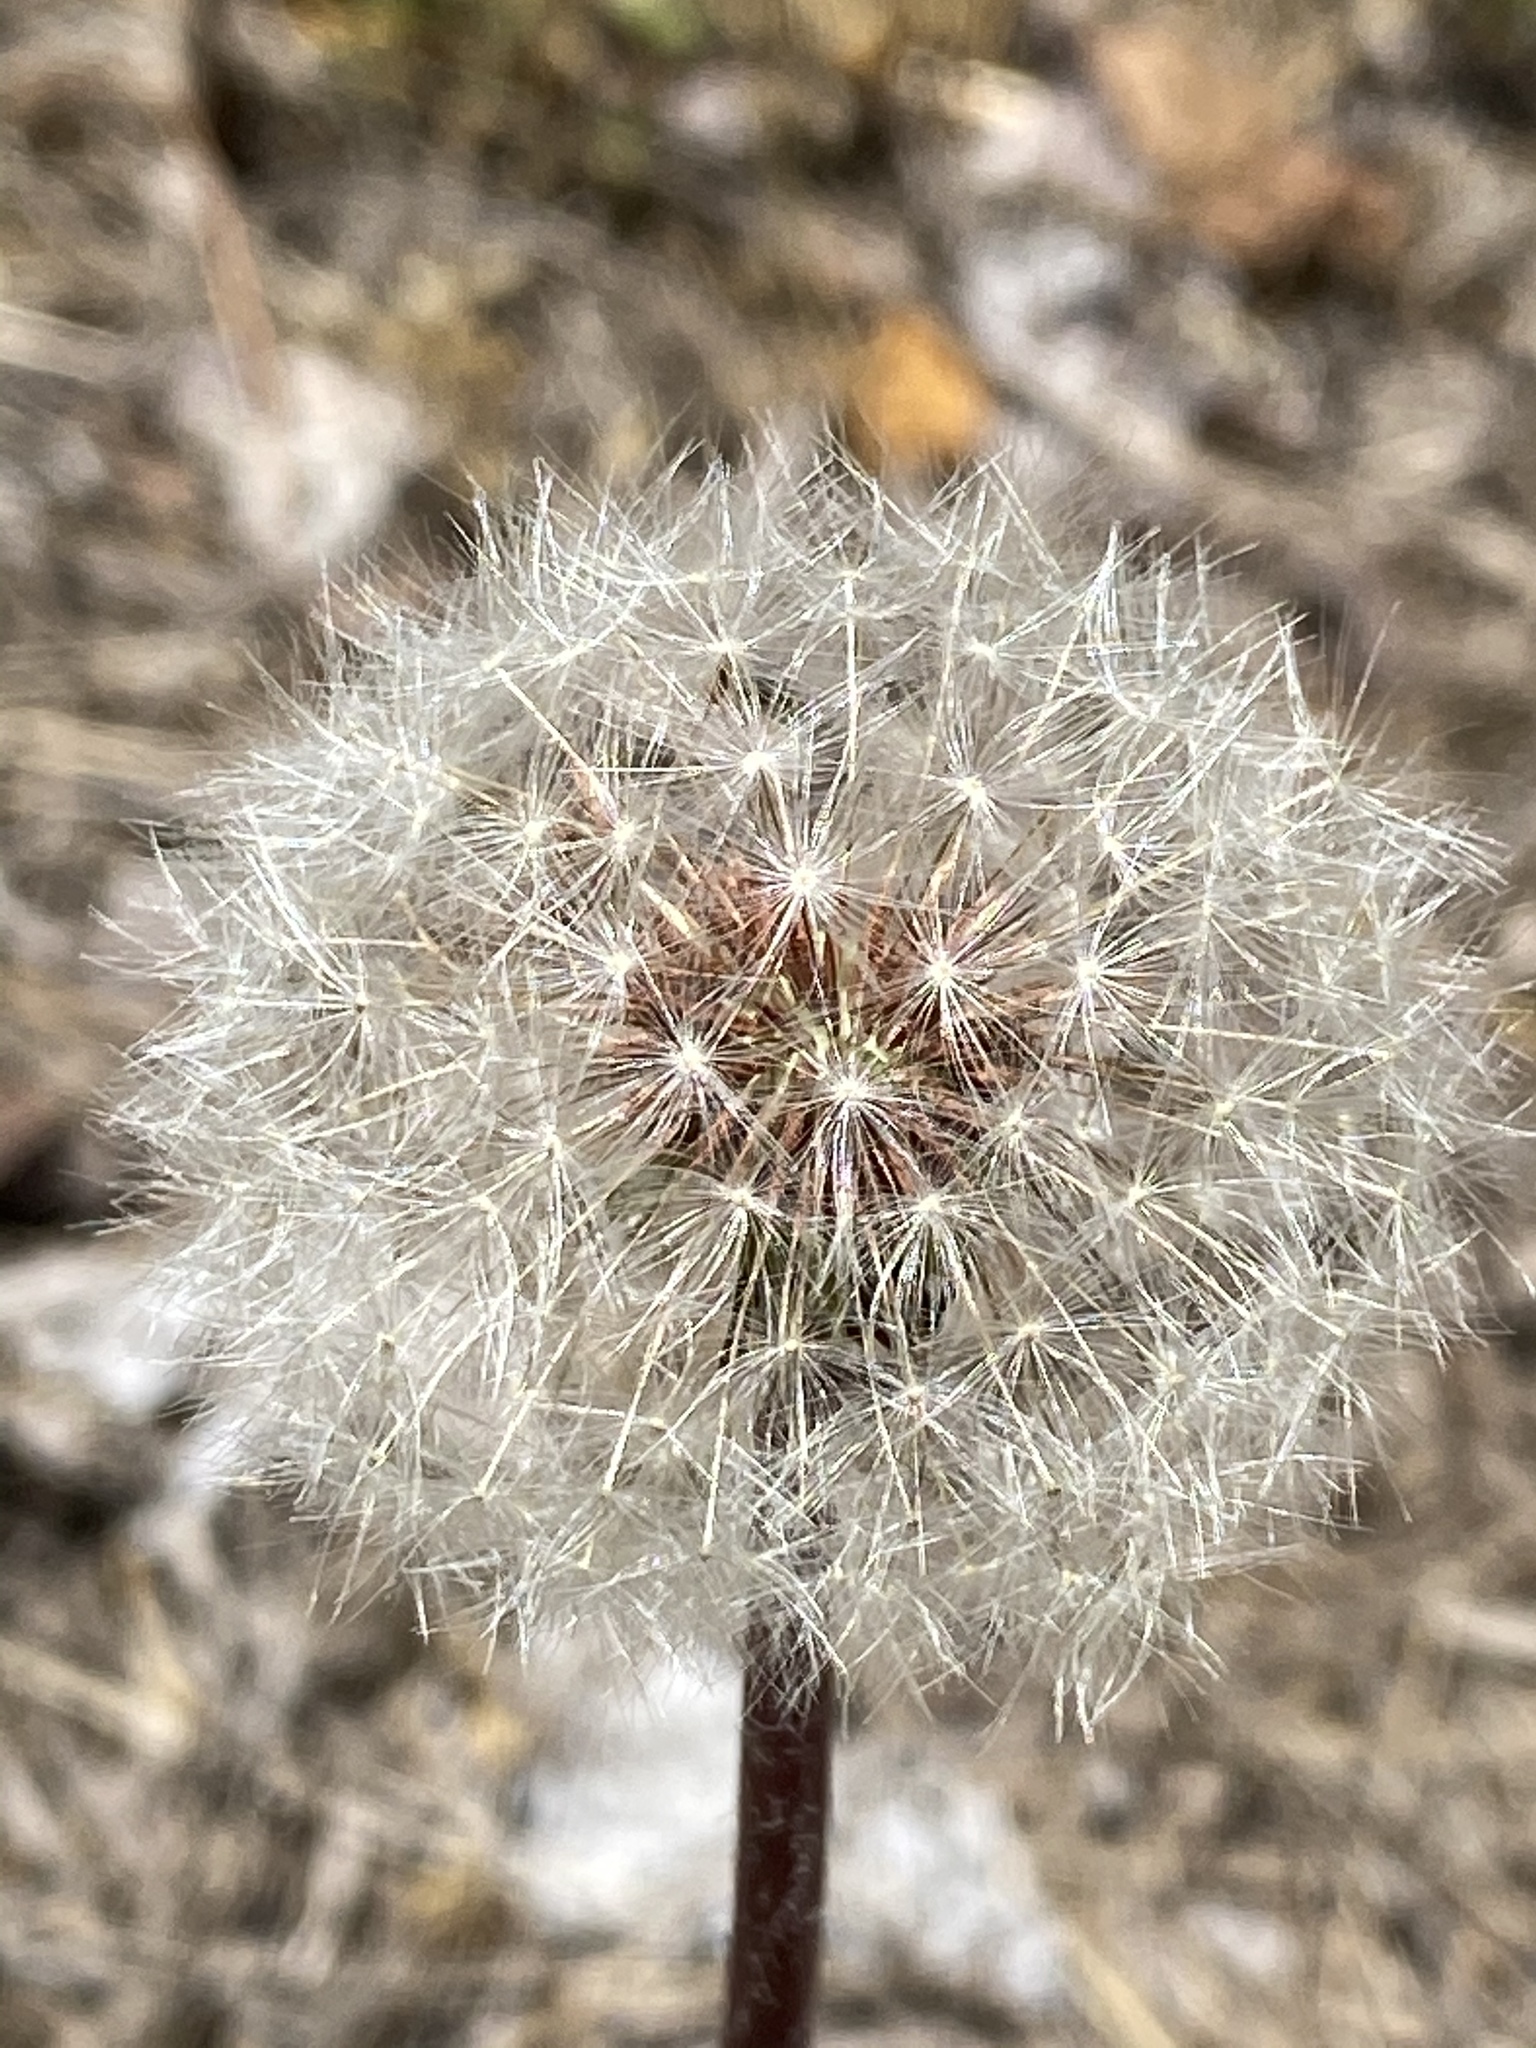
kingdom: Plantae
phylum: Tracheophyta
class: Magnoliopsida
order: Asterales
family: Asteraceae
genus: Taraxacum
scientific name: Taraxacum erythrospermum
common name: Rock dandelion
